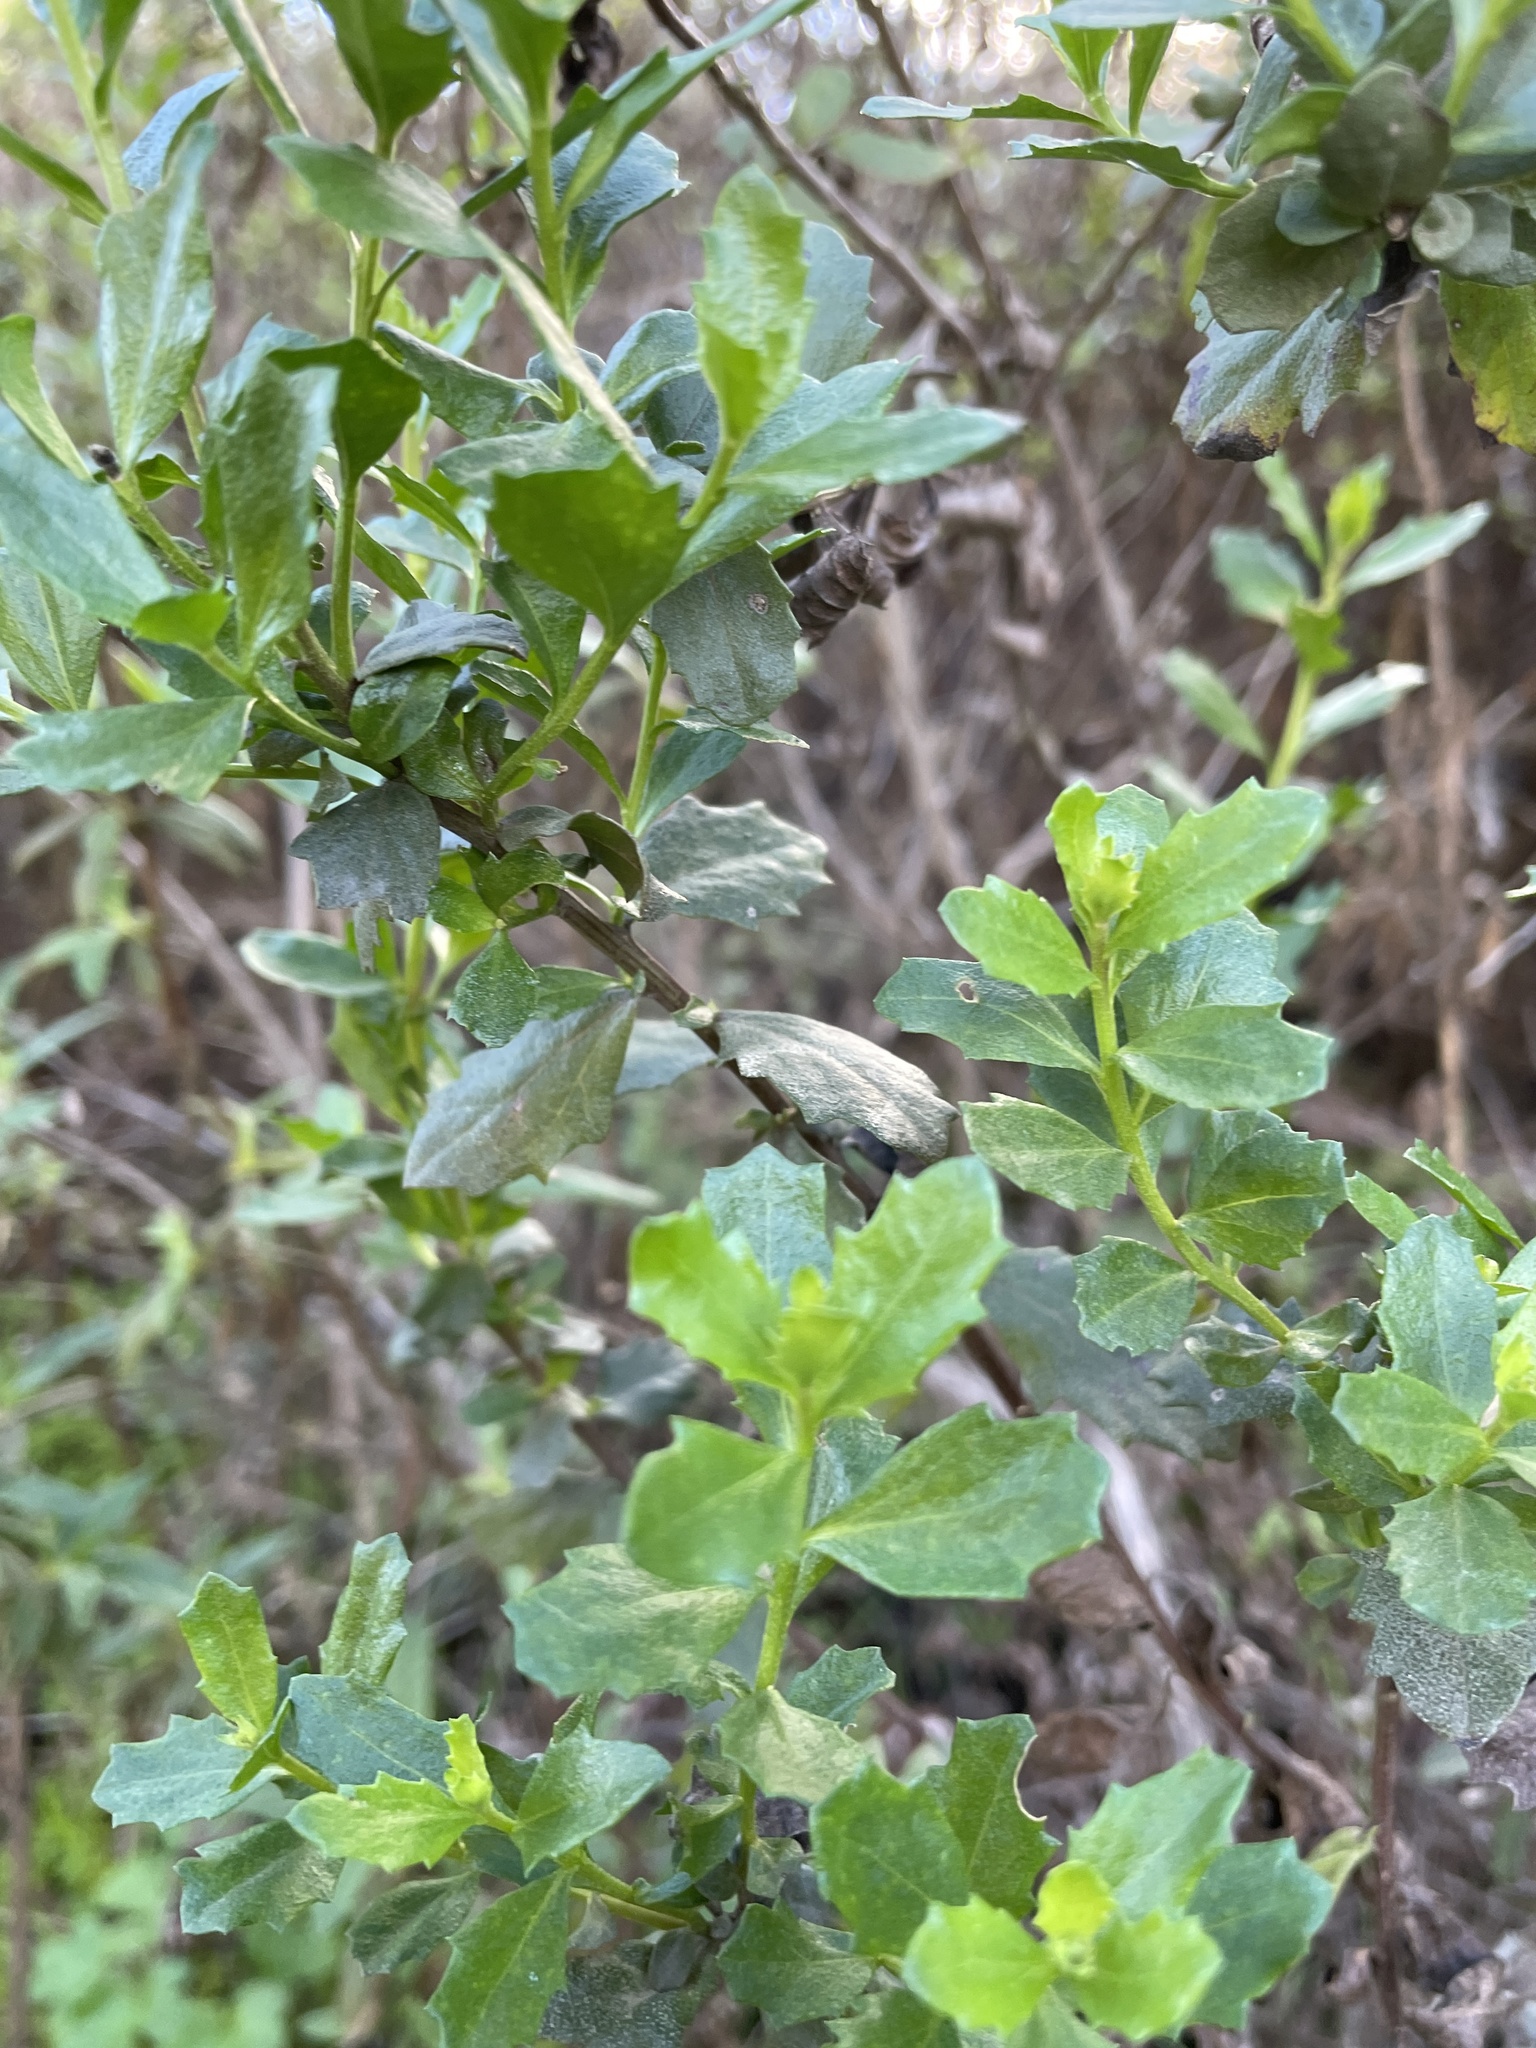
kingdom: Plantae
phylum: Tracheophyta
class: Magnoliopsida
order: Asterales
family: Asteraceae
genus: Baccharis
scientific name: Baccharis pilularis
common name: Coyotebrush
